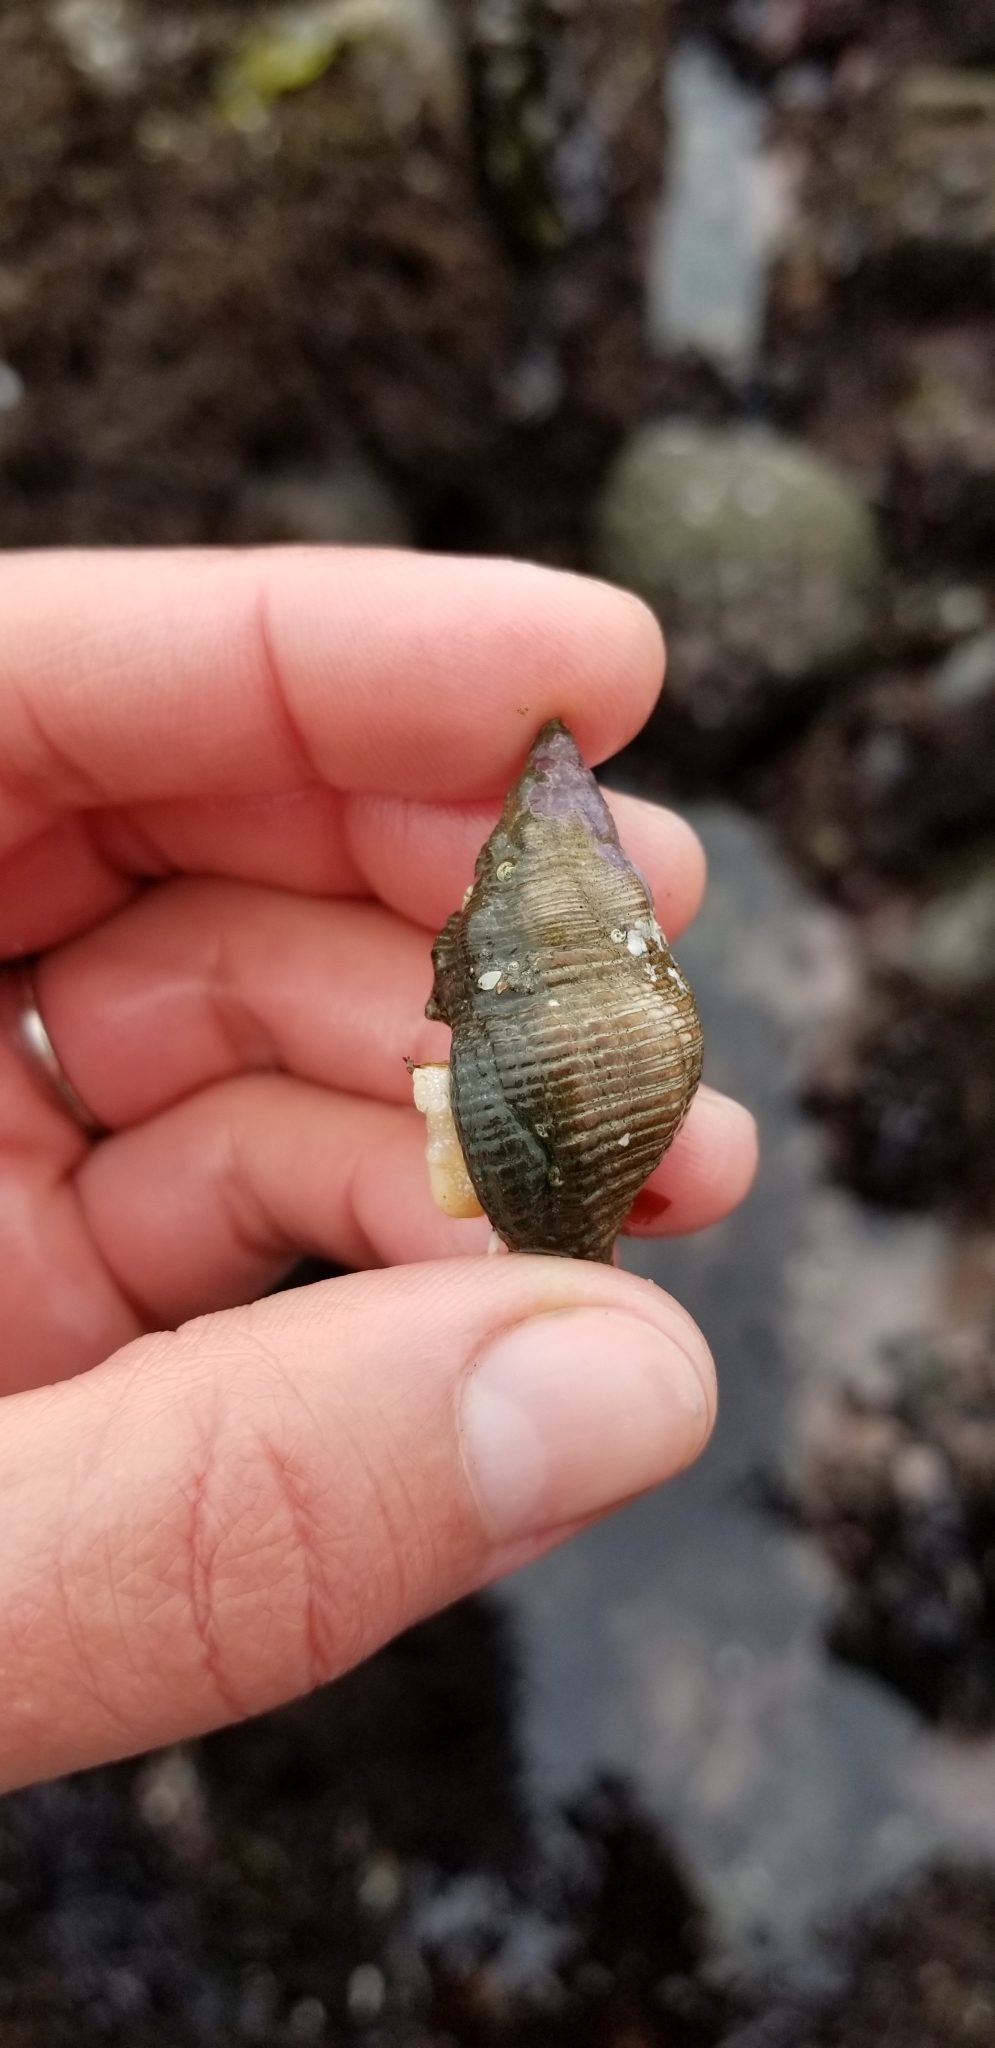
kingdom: Animalia
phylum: Mollusca
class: Gastropoda
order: Neogastropoda
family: Tudiclidae
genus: Lirabuccinum
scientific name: Lirabuccinum dirum
